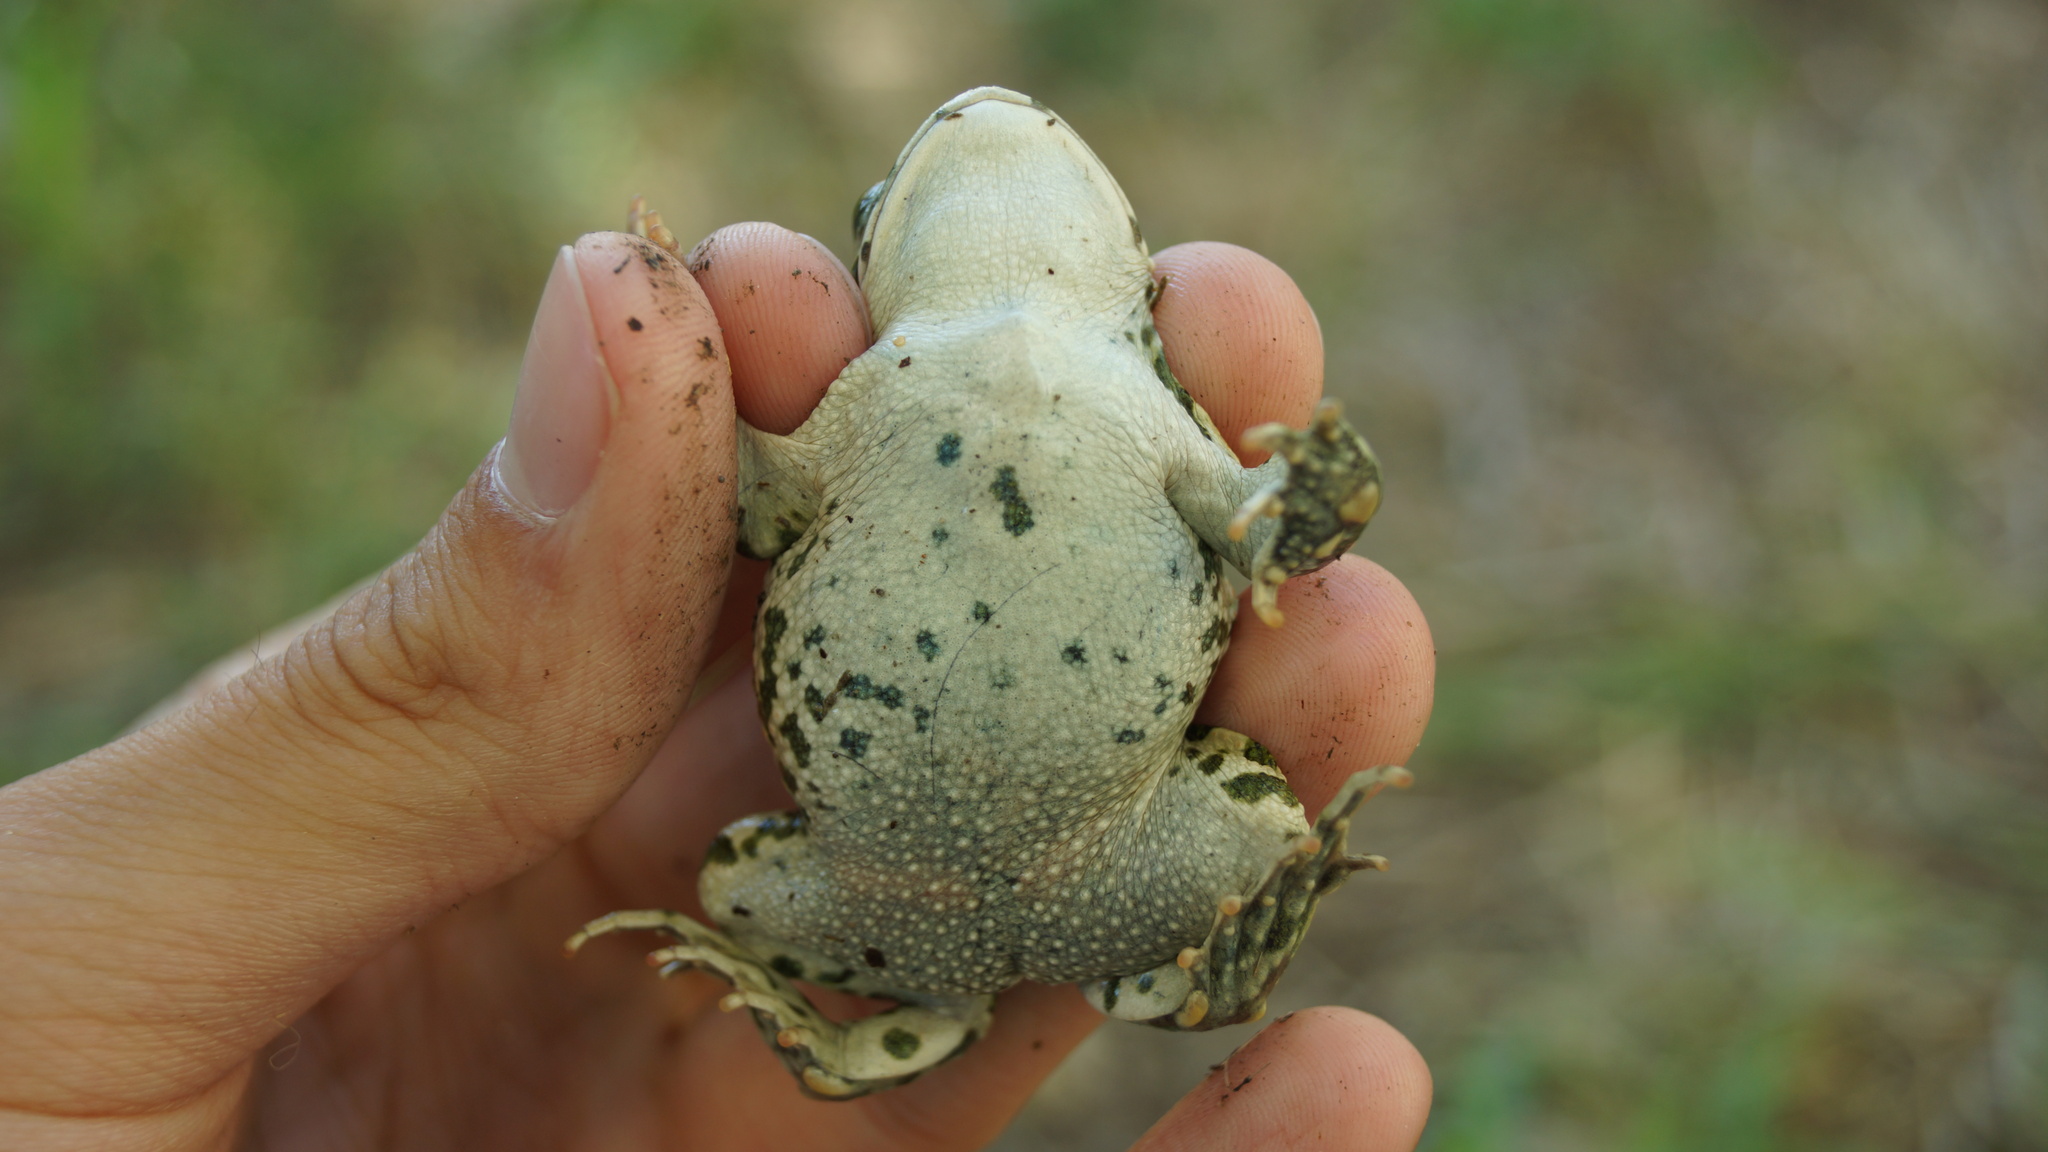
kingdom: Animalia
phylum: Chordata
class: Amphibia
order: Anura
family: Bufonidae
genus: Bufotes
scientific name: Bufotes viridis
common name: European green toad
